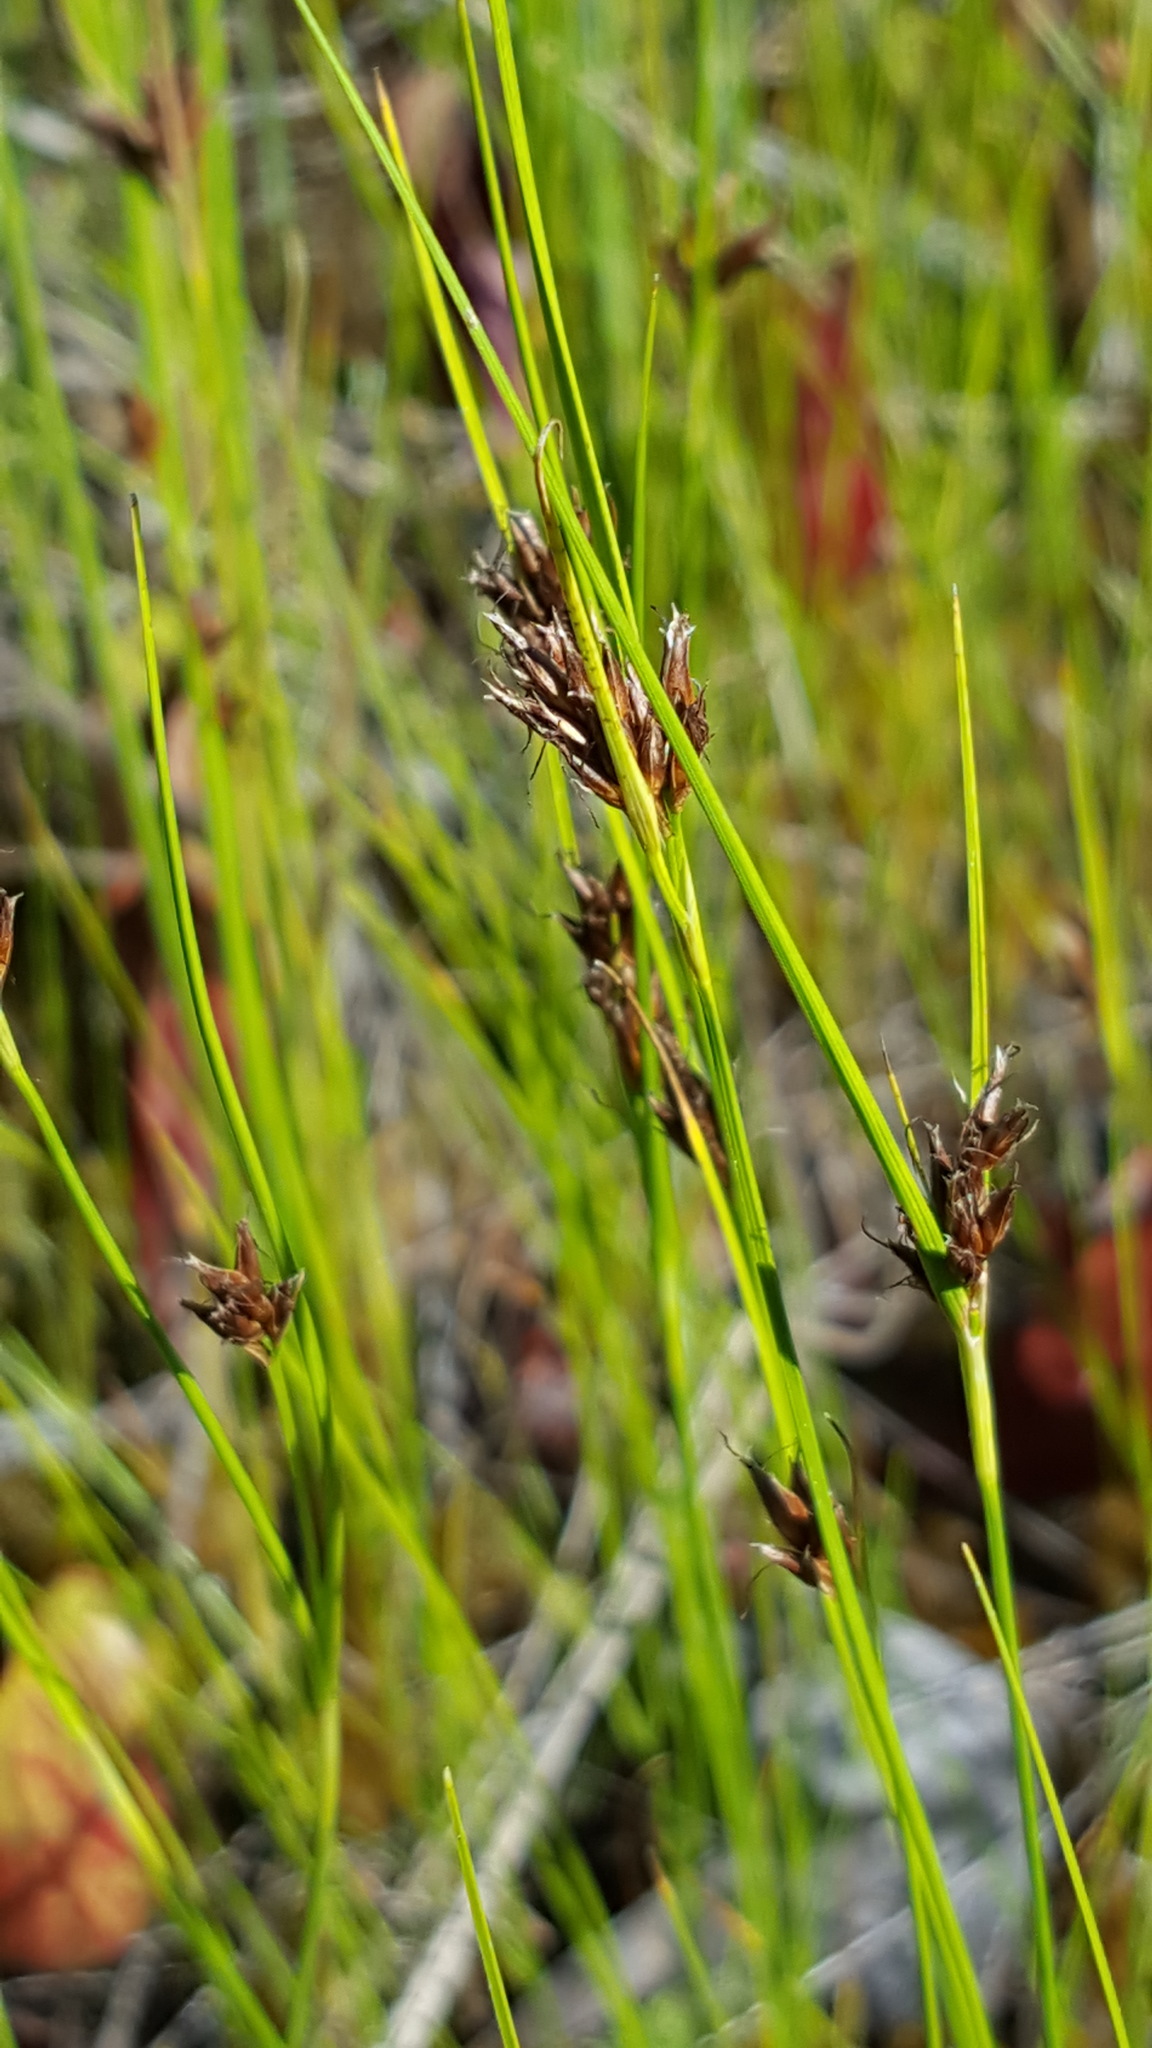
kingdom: Plantae
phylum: Tracheophyta
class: Liliopsida
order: Poales
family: Cyperaceae
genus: Rhynchospora
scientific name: Rhynchospora fusca
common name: Brown beak-sedge
